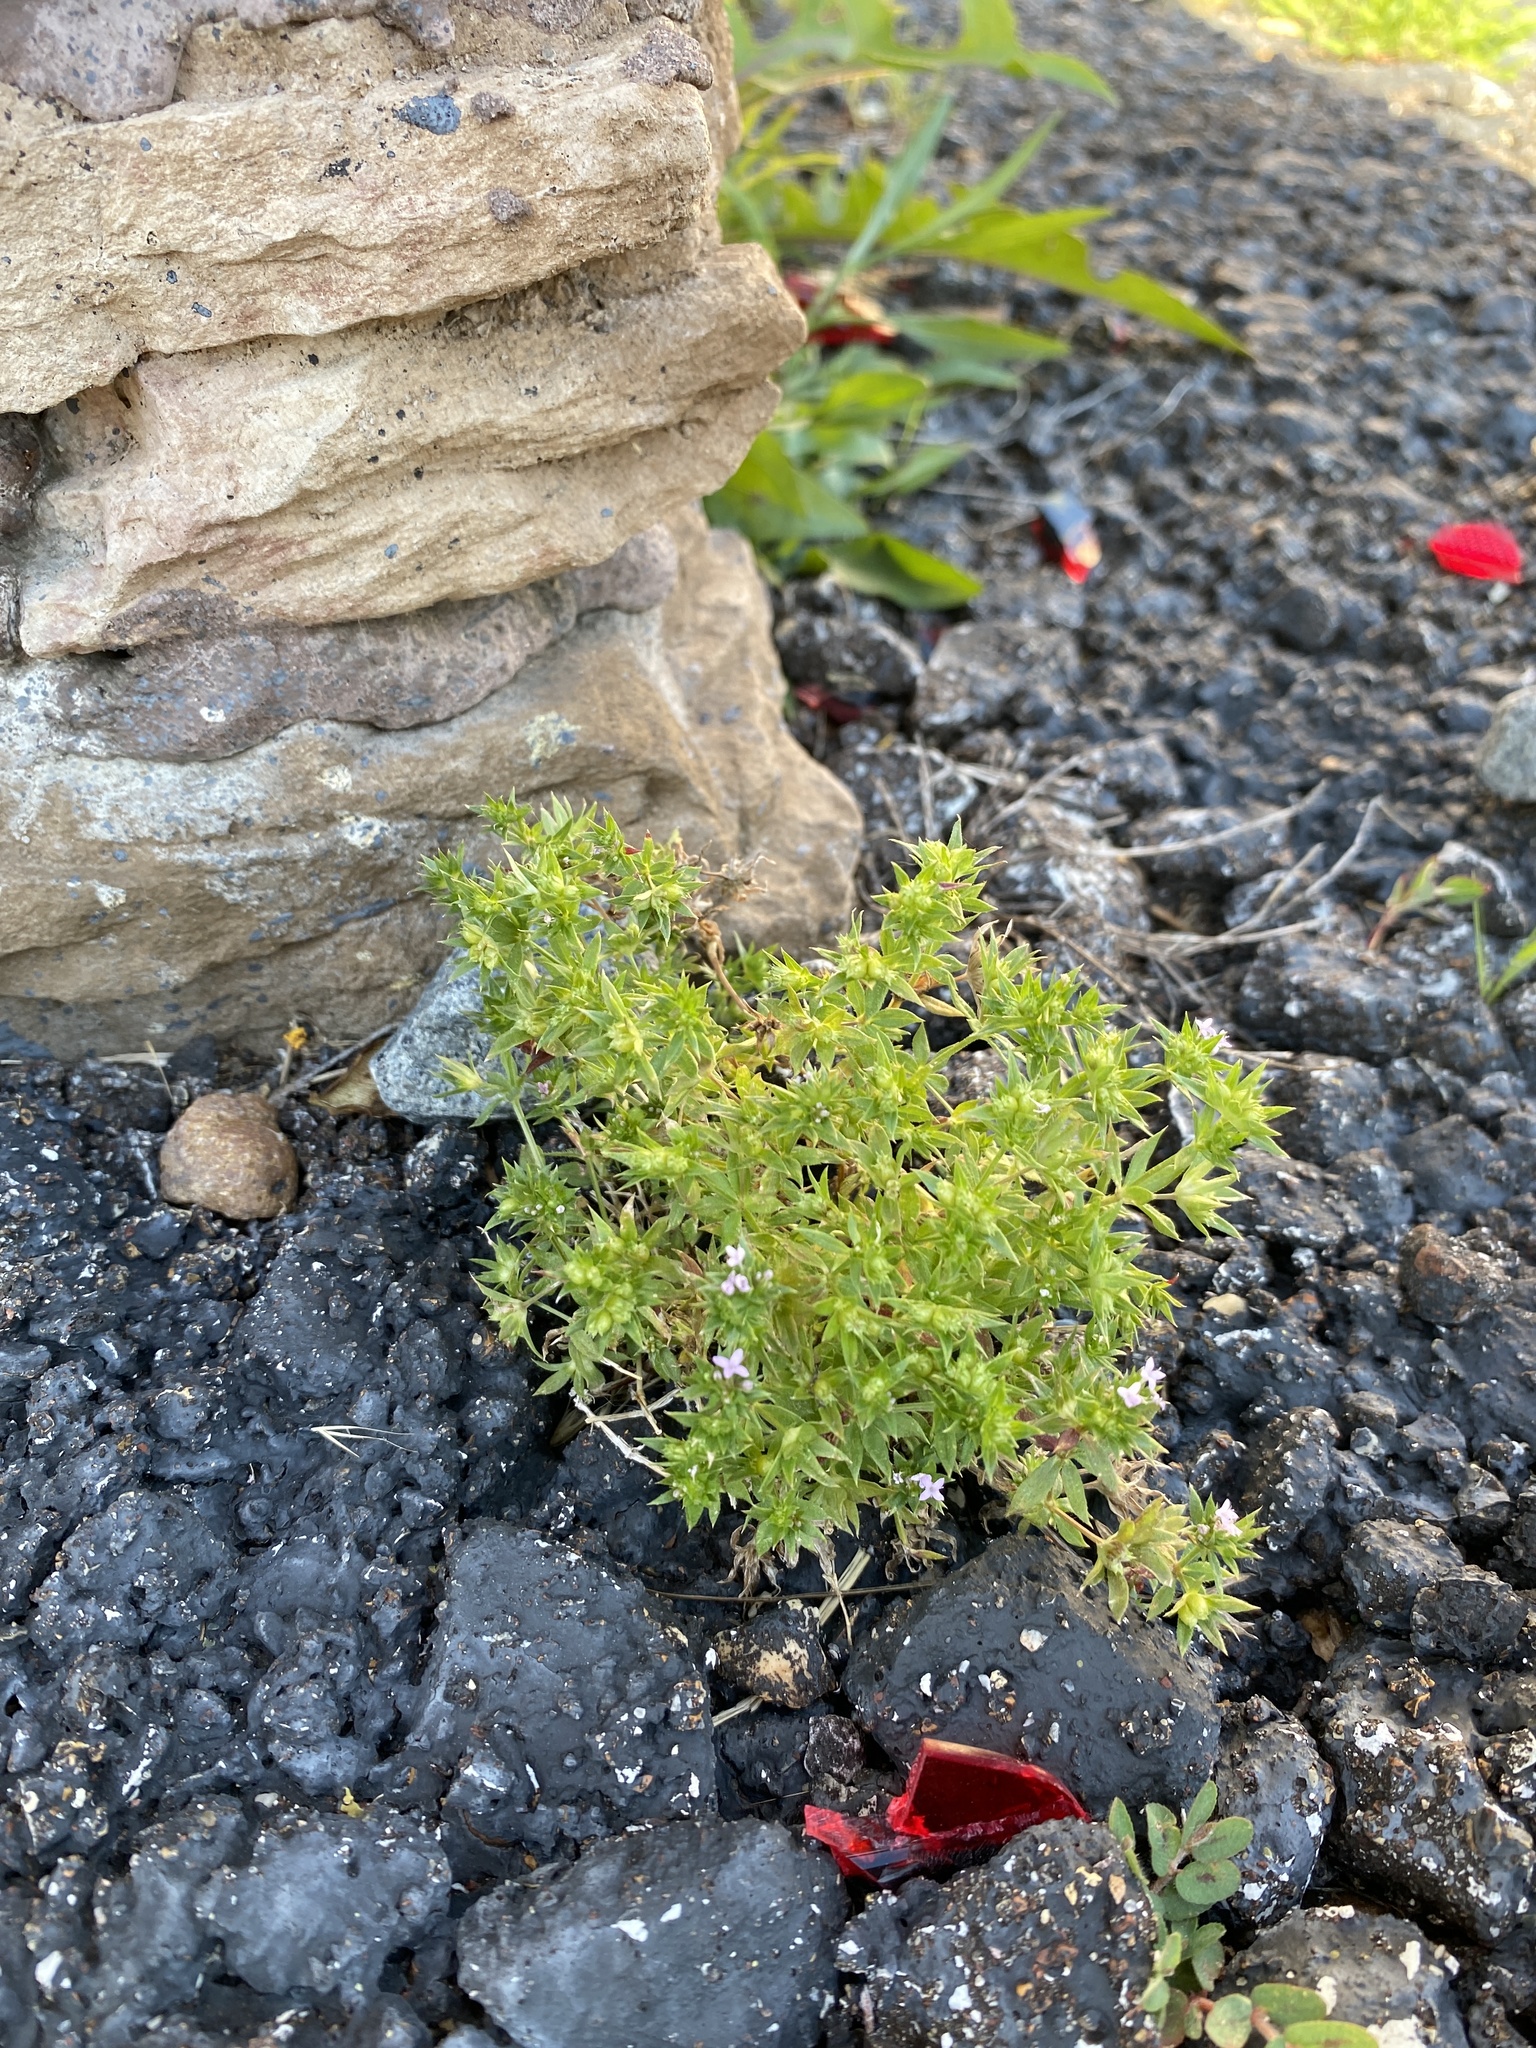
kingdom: Plantae
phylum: Tracheophyta
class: Magnoliopsida
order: Gentianales
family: Rubiaceae
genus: Sherardia
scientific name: Sherardia arvensis
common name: Field madder
